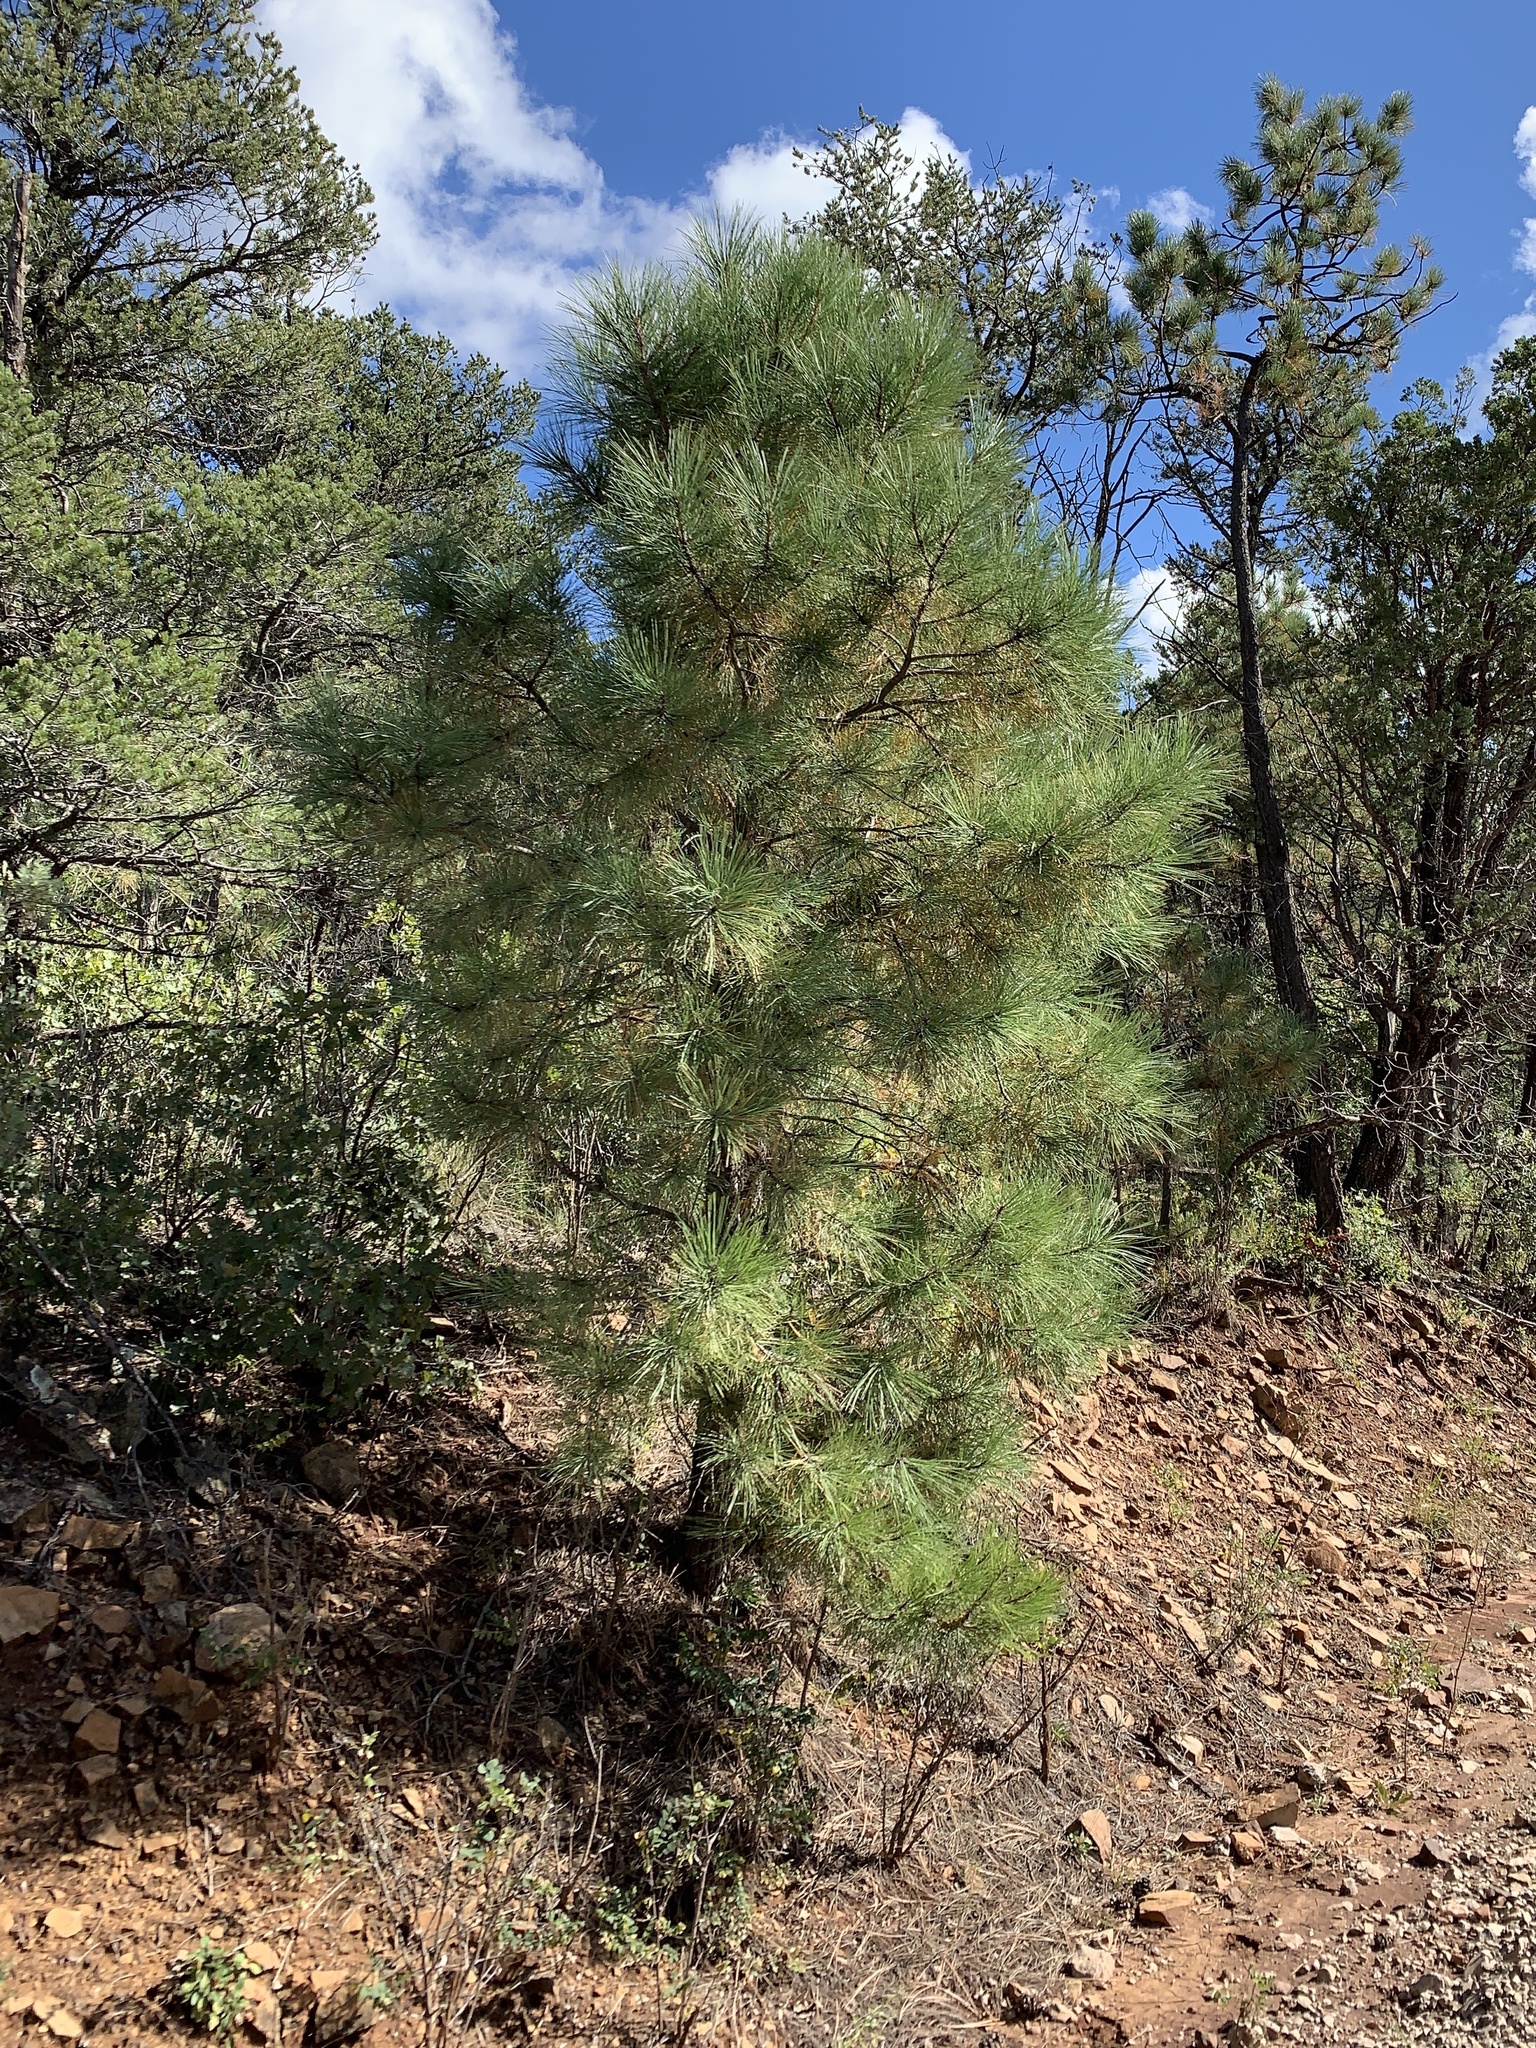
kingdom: Plantae
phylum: Tracheophyta
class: Pinopsida
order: Pinales
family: Pinaceae
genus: Pinus
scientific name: Pinus ponderosa
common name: Western yellow-pine
